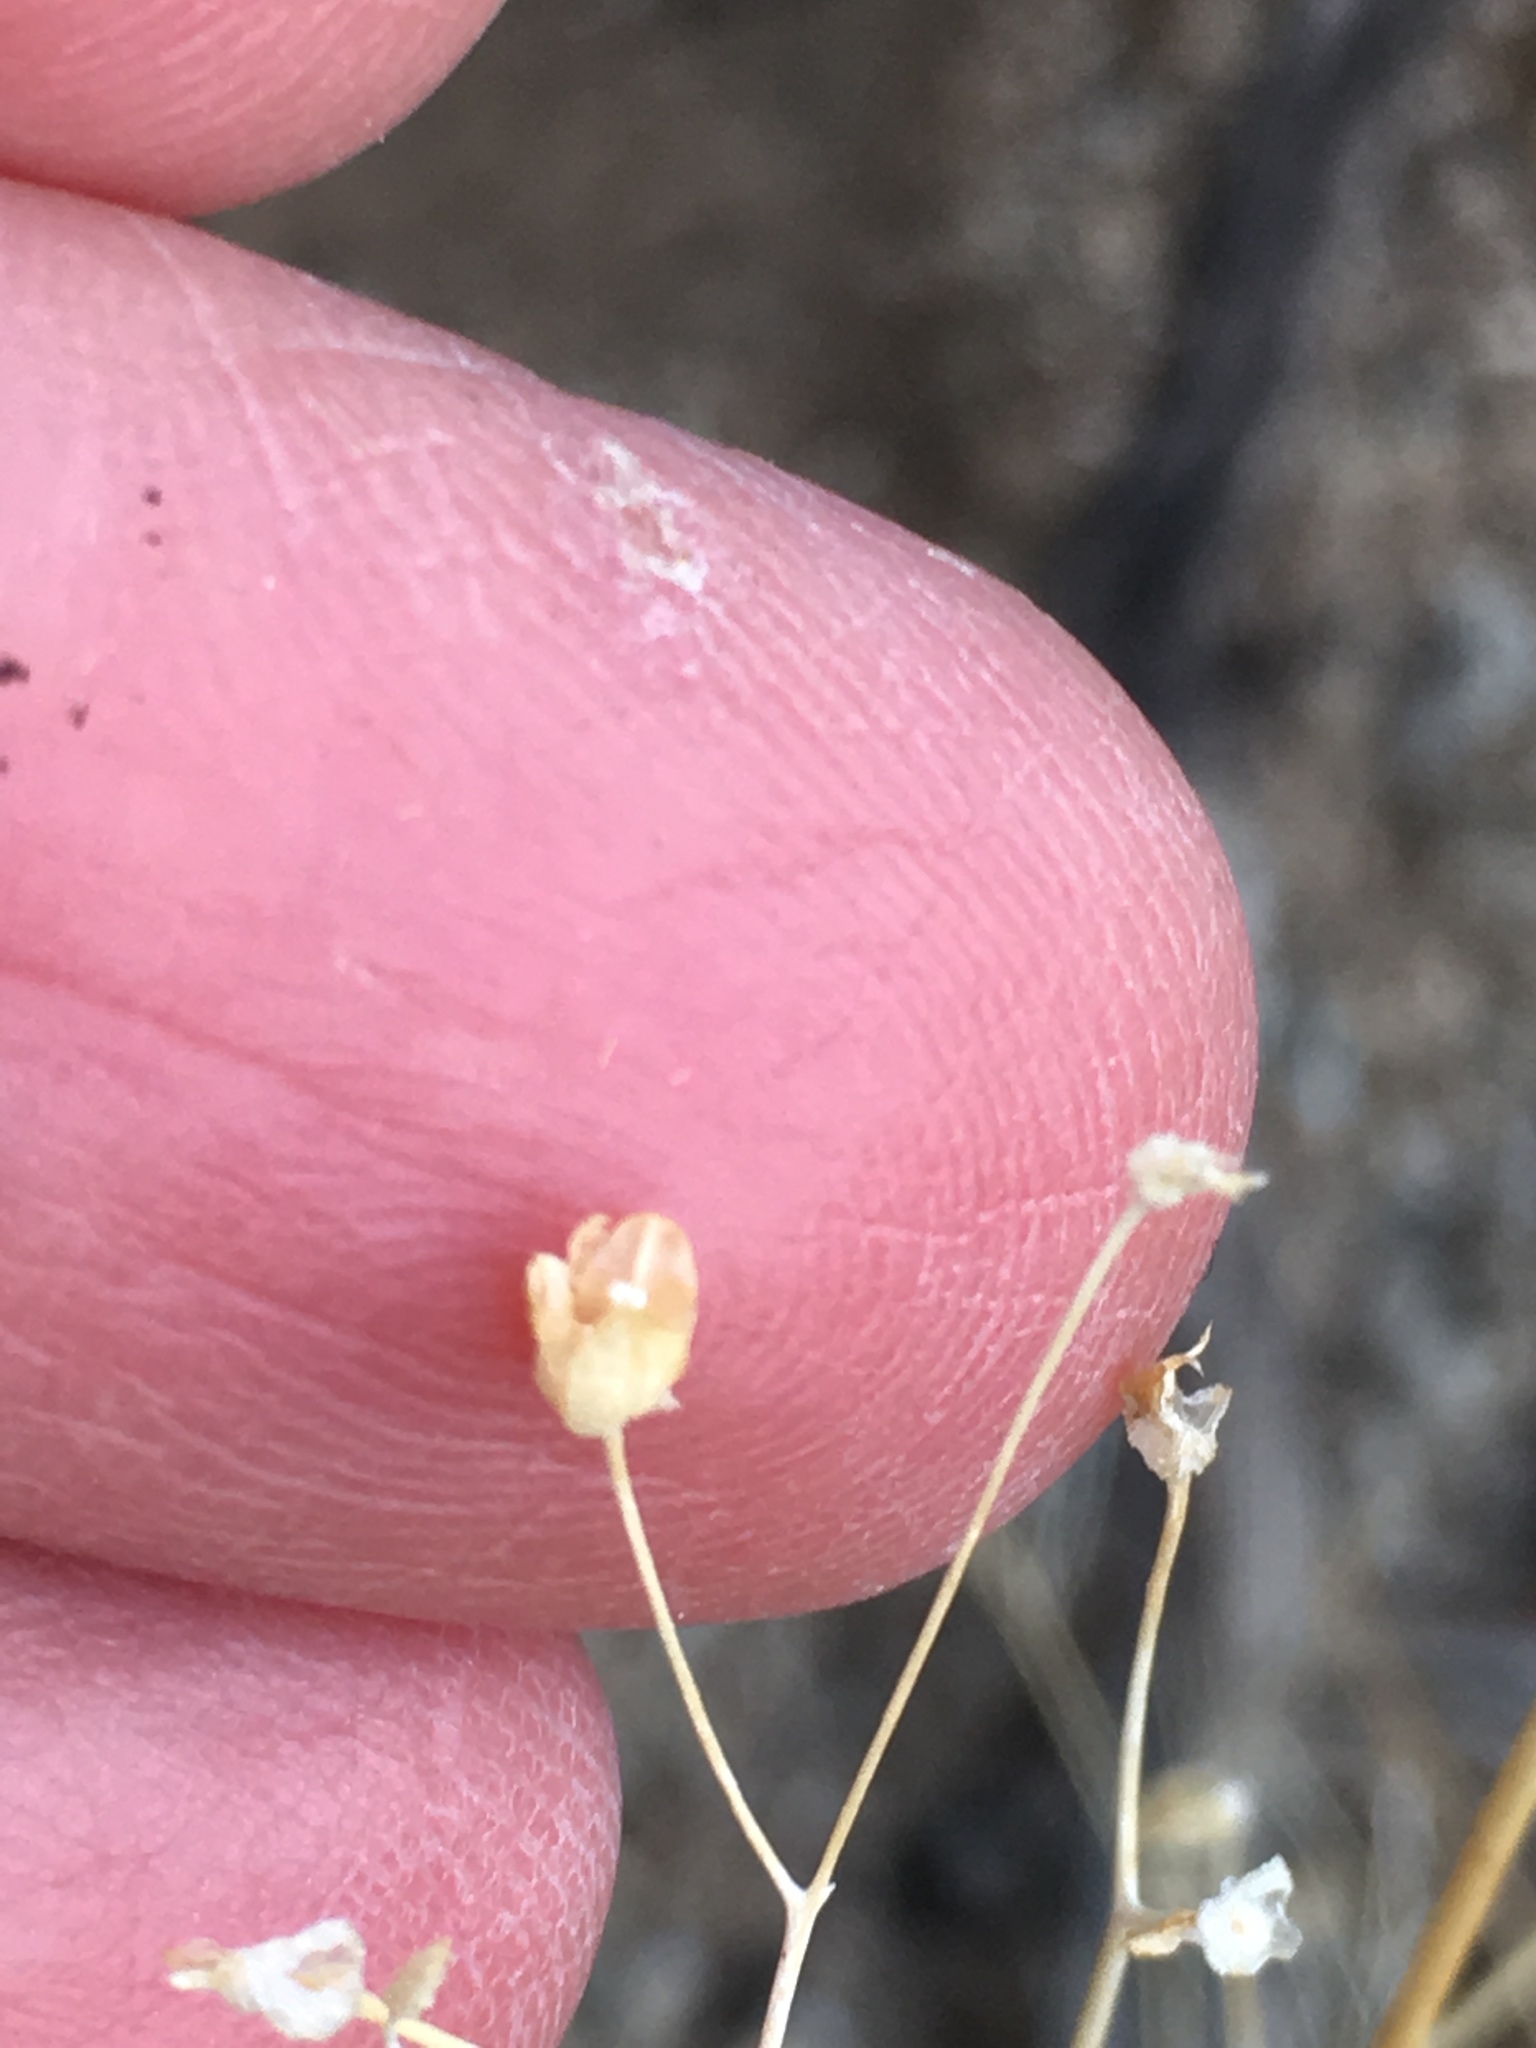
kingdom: Plantae
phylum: Tracheophyta
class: Magnoliopsida
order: Ericales
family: Polemoniaceae
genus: Gilia
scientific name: Gilia stellata
